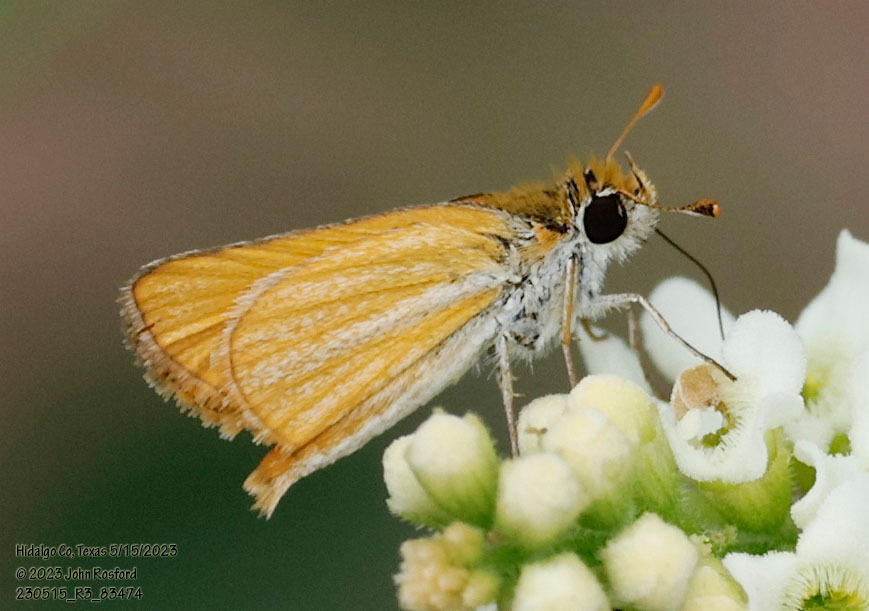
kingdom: Animalia
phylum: Arthropoda
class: Insecta
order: Lepidoptera
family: Hesperiidae
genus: Copaeodes
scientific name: Copaeodes minima
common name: Southern skipperling
